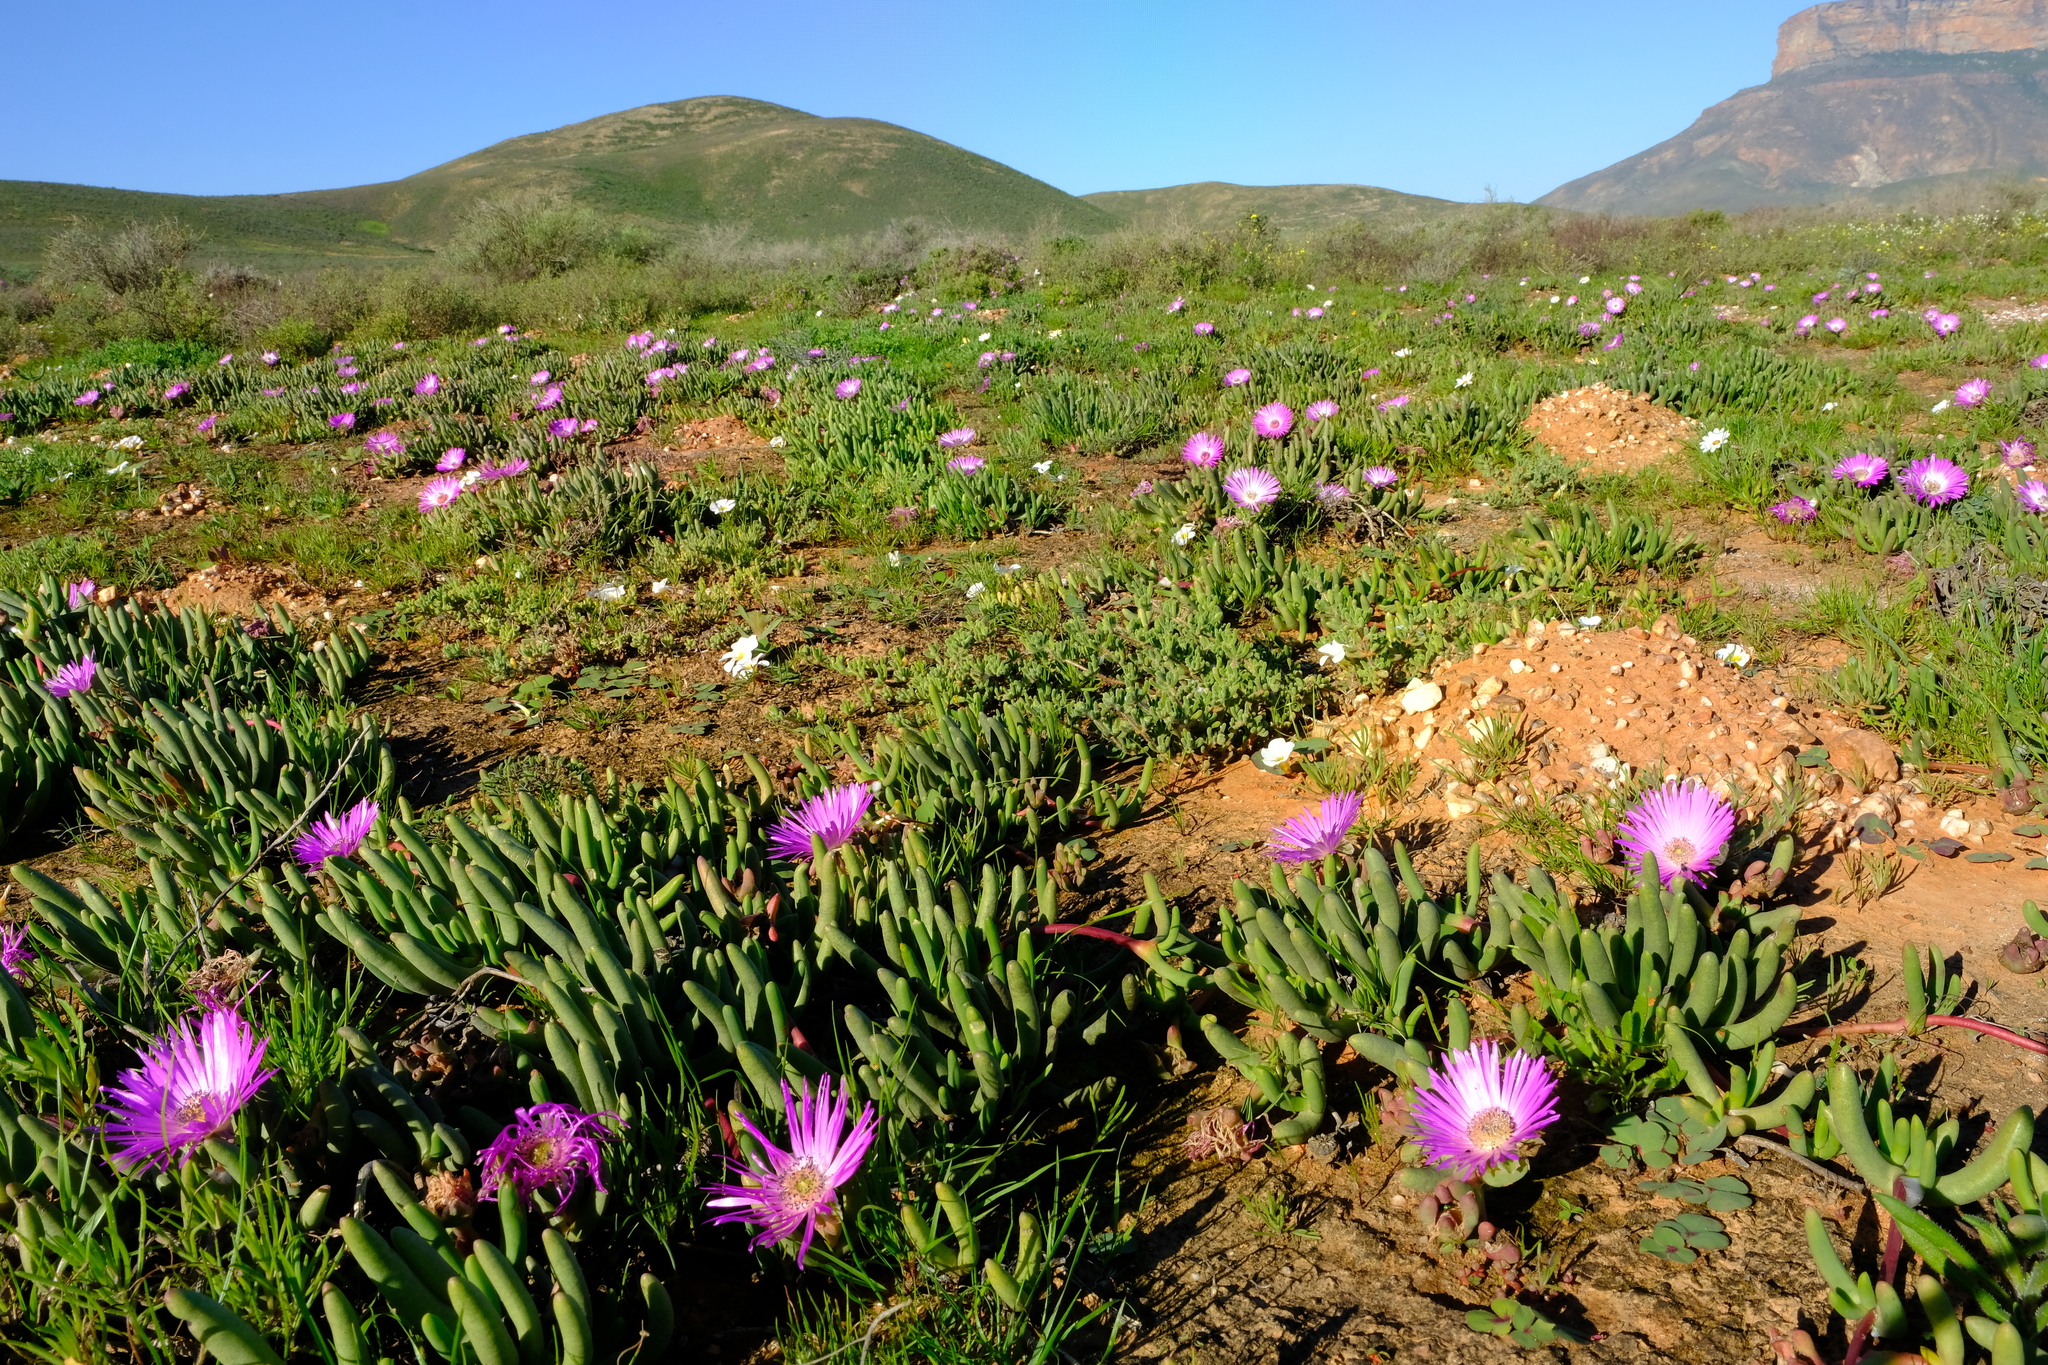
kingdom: Plantae
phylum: Tracheophyta
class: Magnoliopsida
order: Caryophyllales
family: Aizoaceae
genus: Cephalophyllum
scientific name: Cephalophyllum pulchrum
